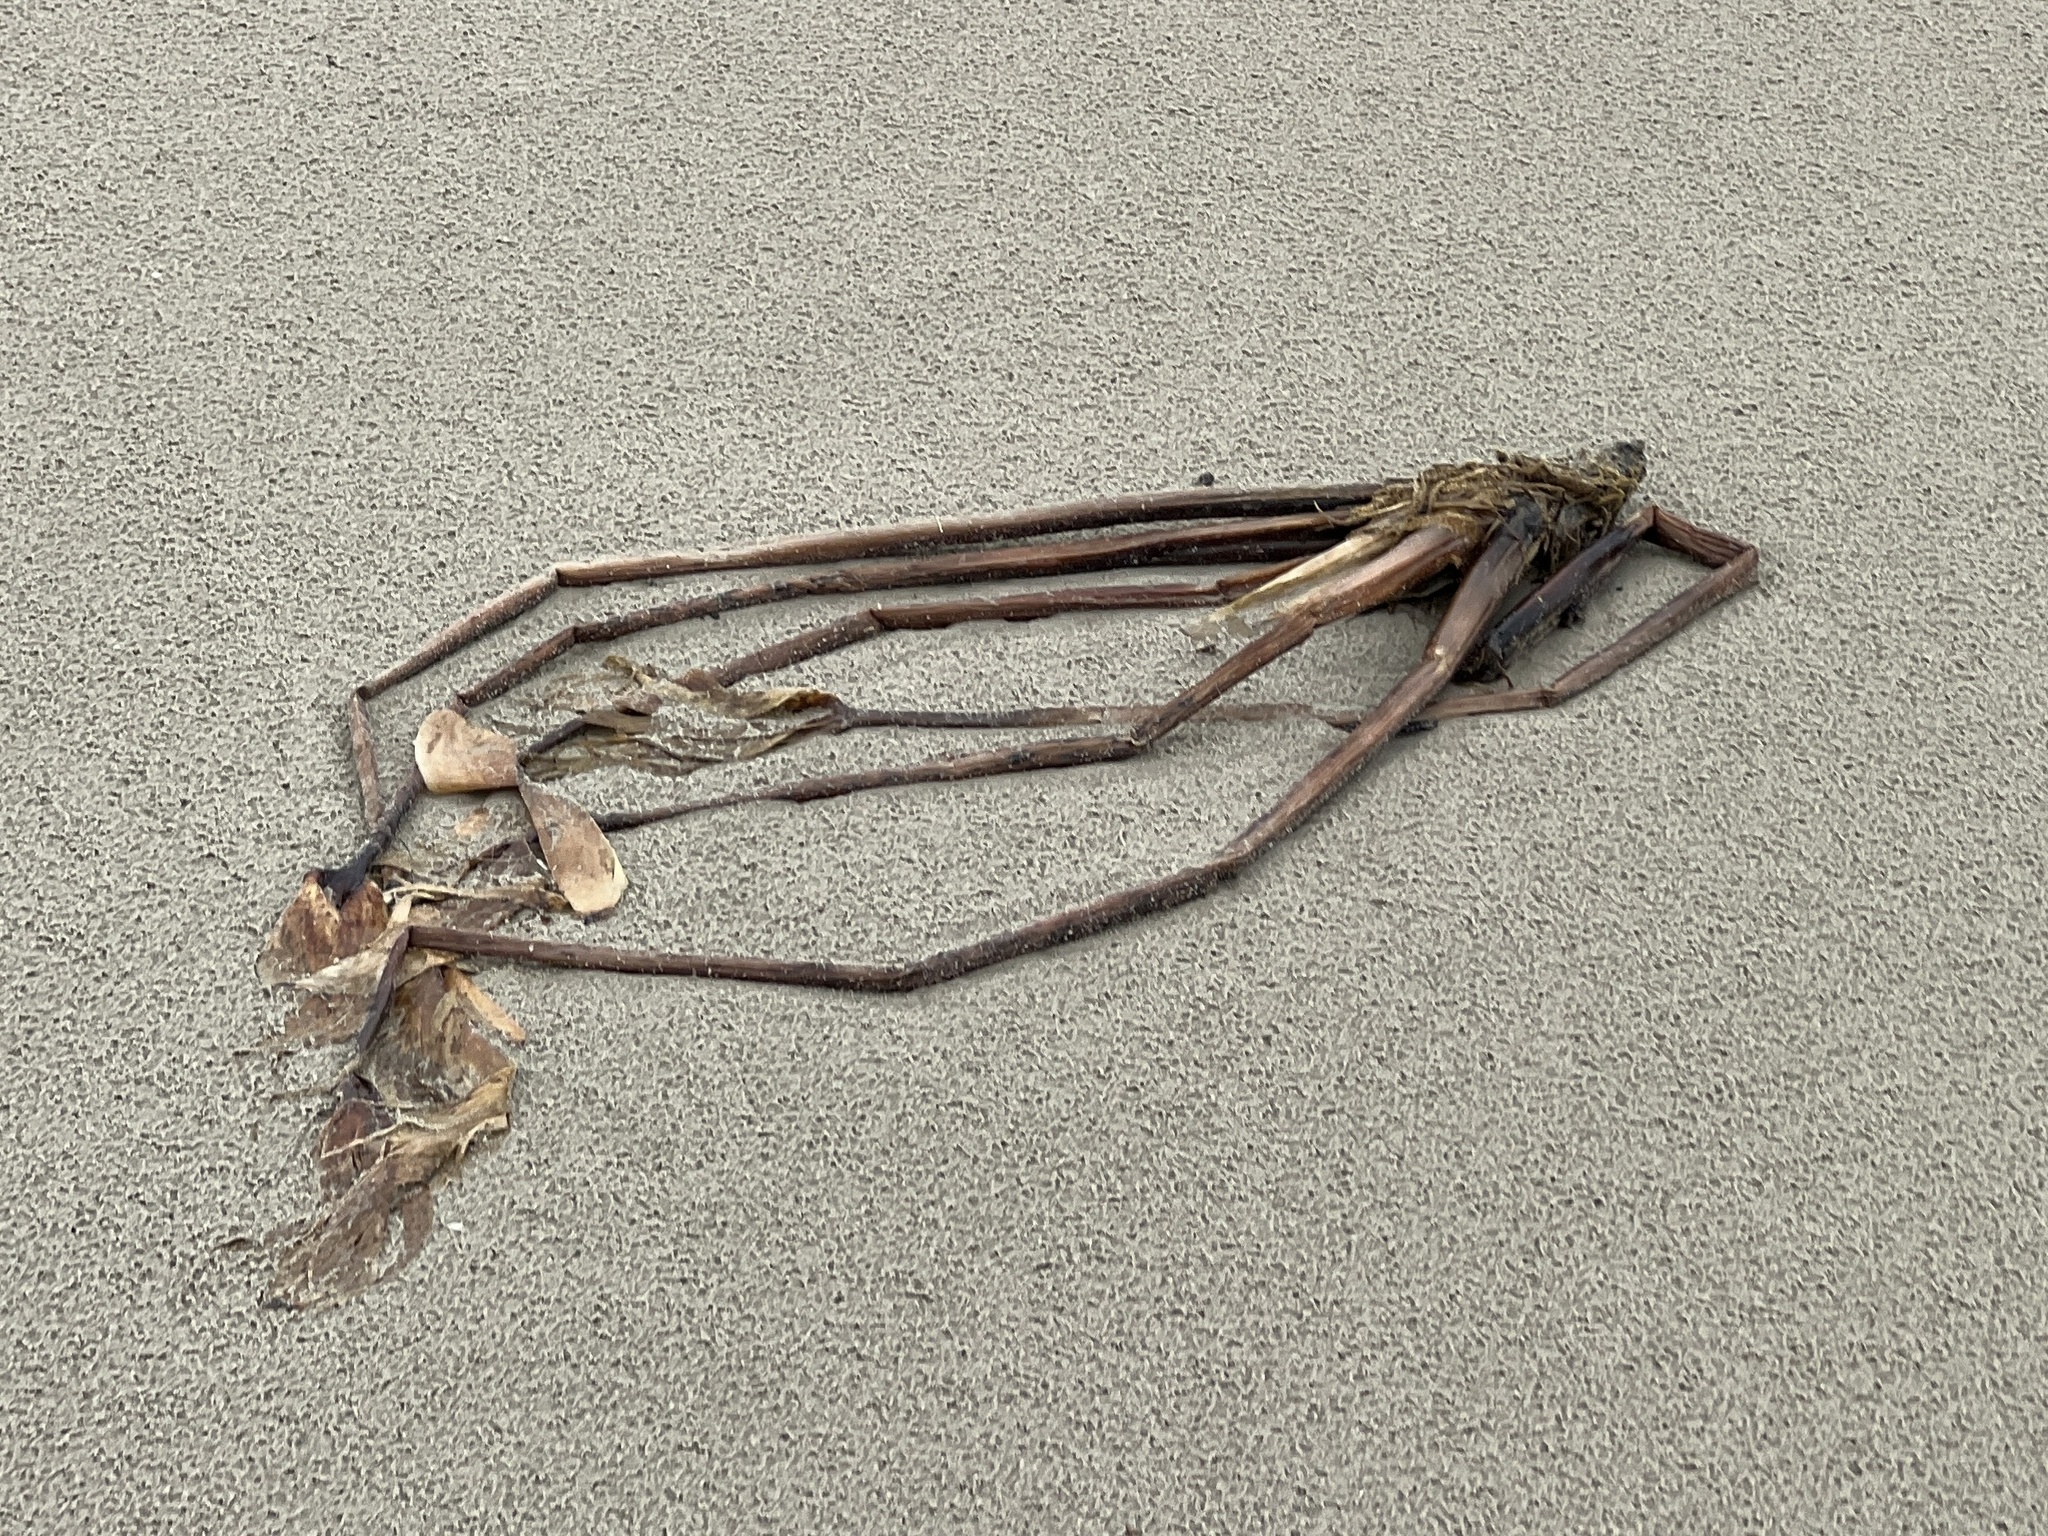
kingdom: Plantae
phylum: Tracheophyta
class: Liliopsida
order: Commelinales
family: Pontederiaceae
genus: Pontederia
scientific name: Pontederia crassipes
